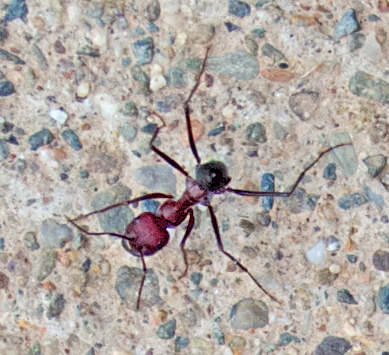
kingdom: Animalia
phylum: Arthropoda
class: Insecta
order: Hymenoptera
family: Formicidae
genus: Cataglyphis
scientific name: Cataglyphis nodus
